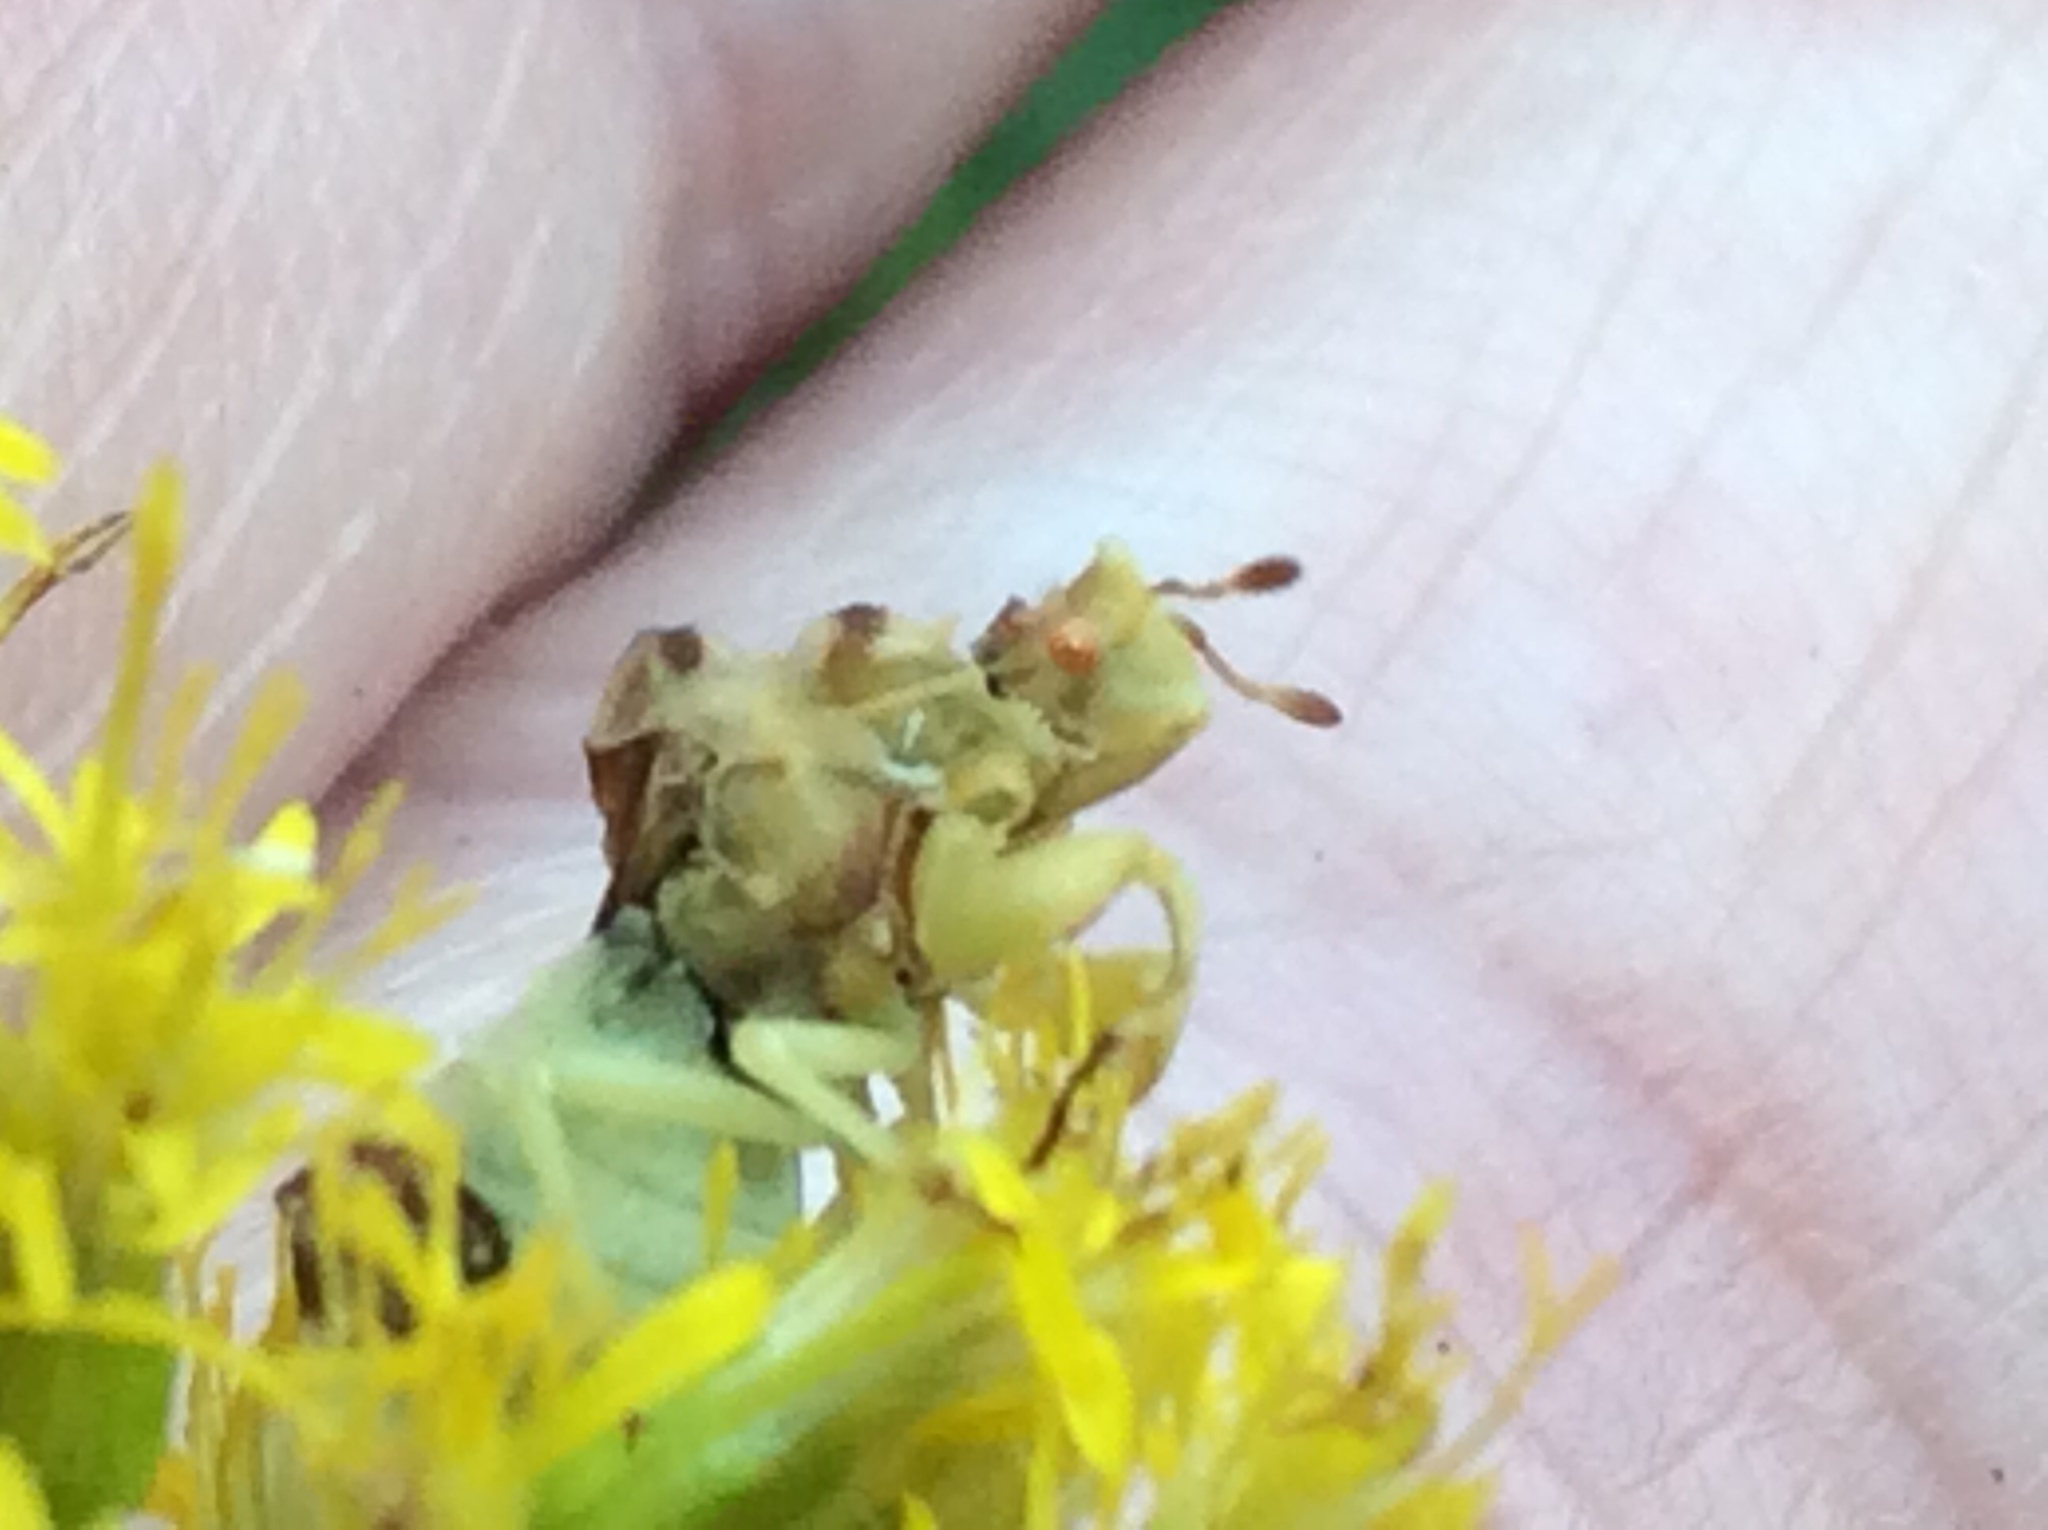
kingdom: Animalia
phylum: Arthropoda
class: Insecta
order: Hemiptera
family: Reduviidae
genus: Phymata
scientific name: Phymata fasciata
